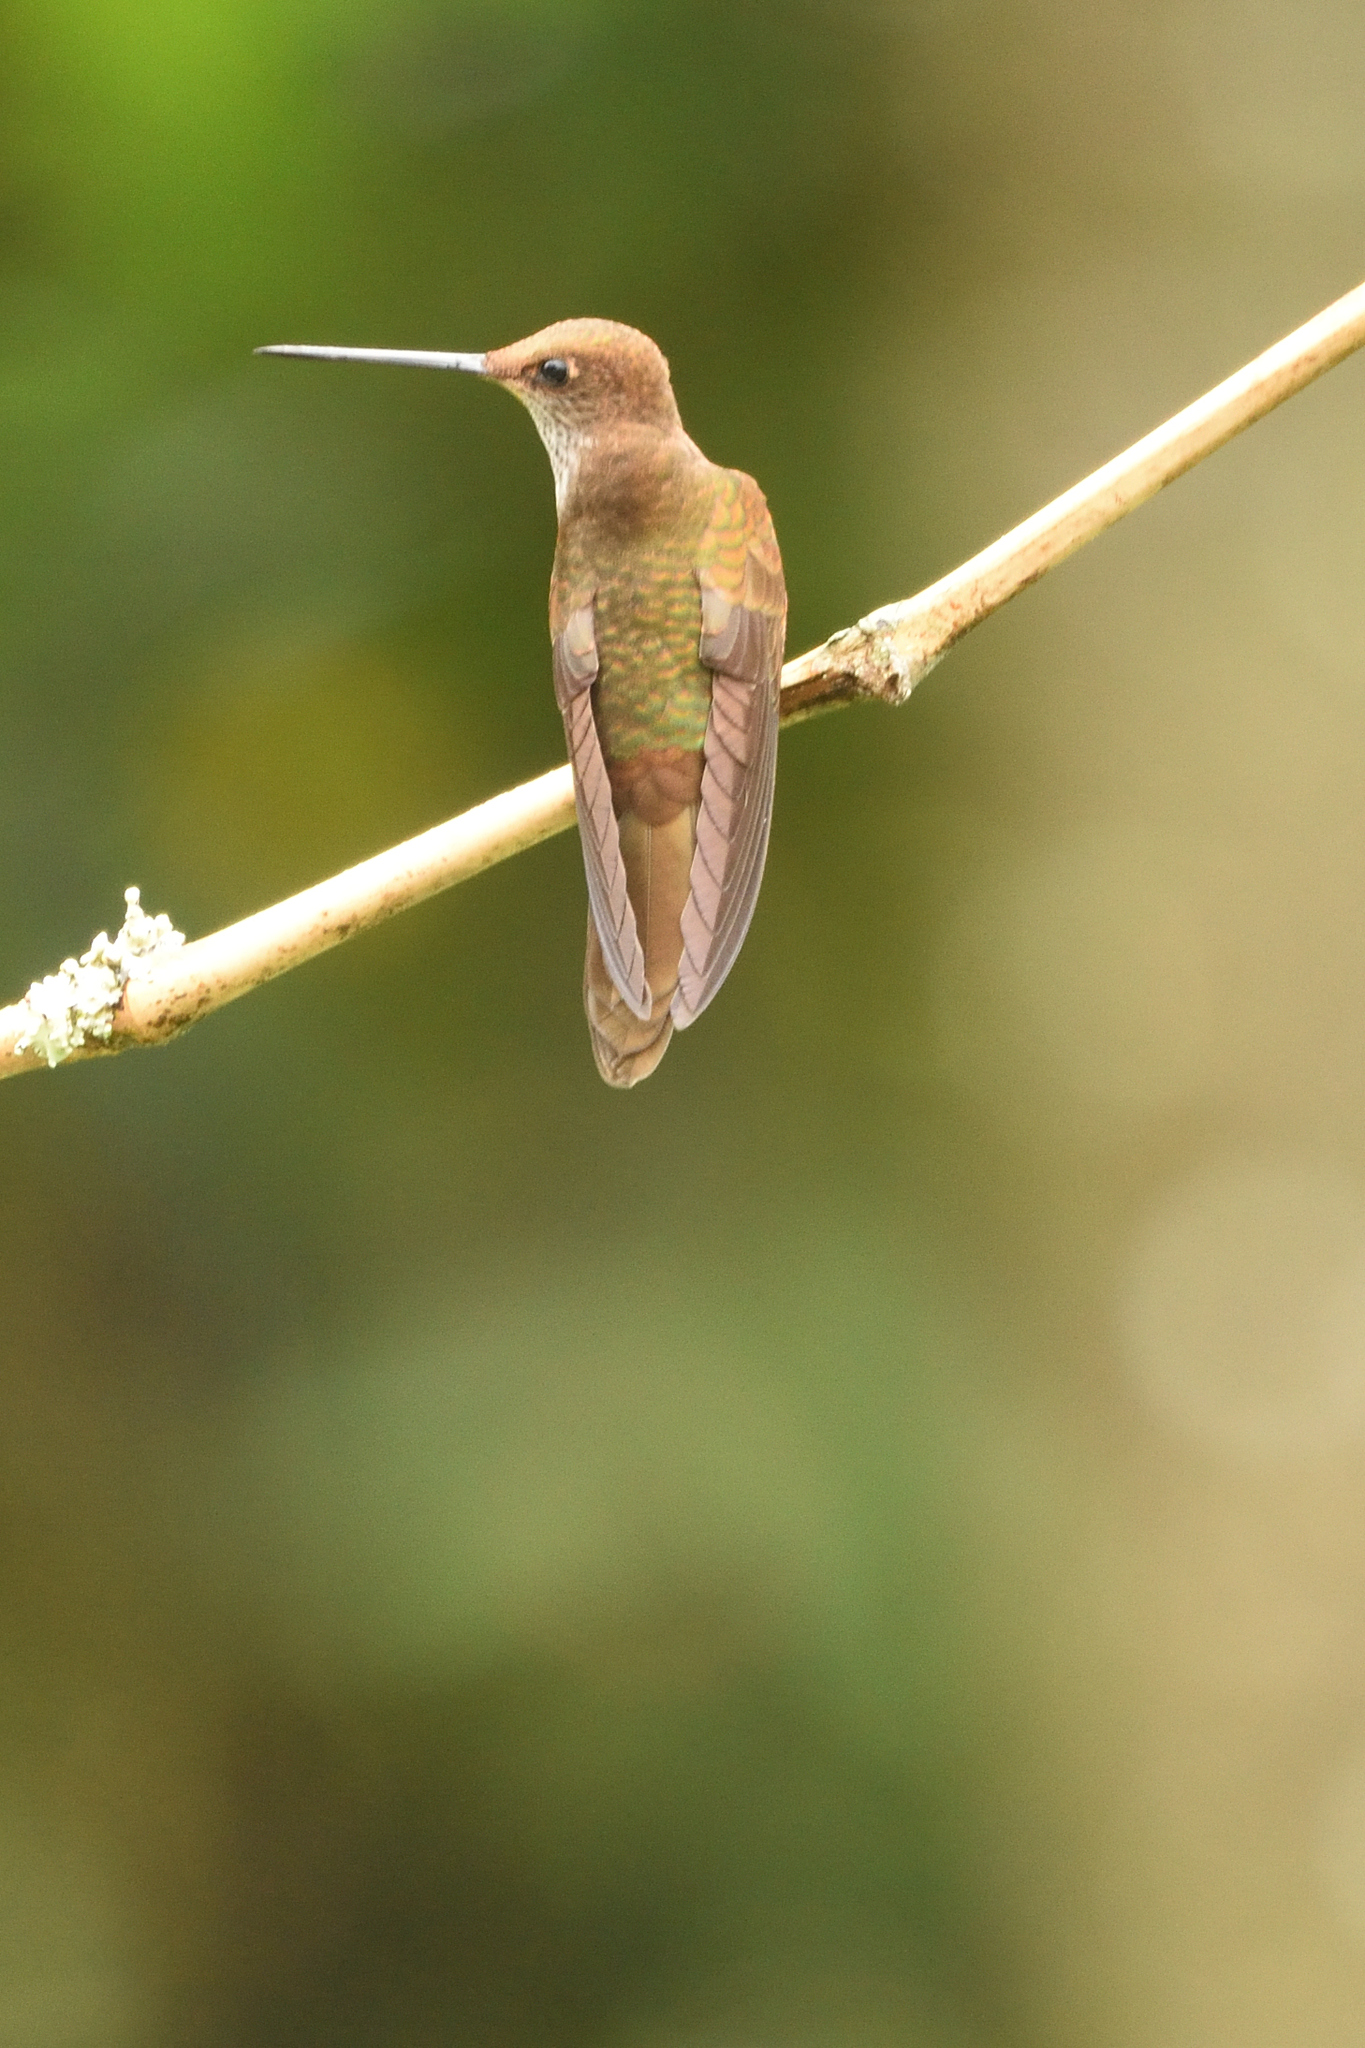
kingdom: Animalia
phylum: Chordata
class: Aves
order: Apodiformes
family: Trochilidae
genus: Coeligena
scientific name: Coeligena coeligena
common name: Bronzy inca
